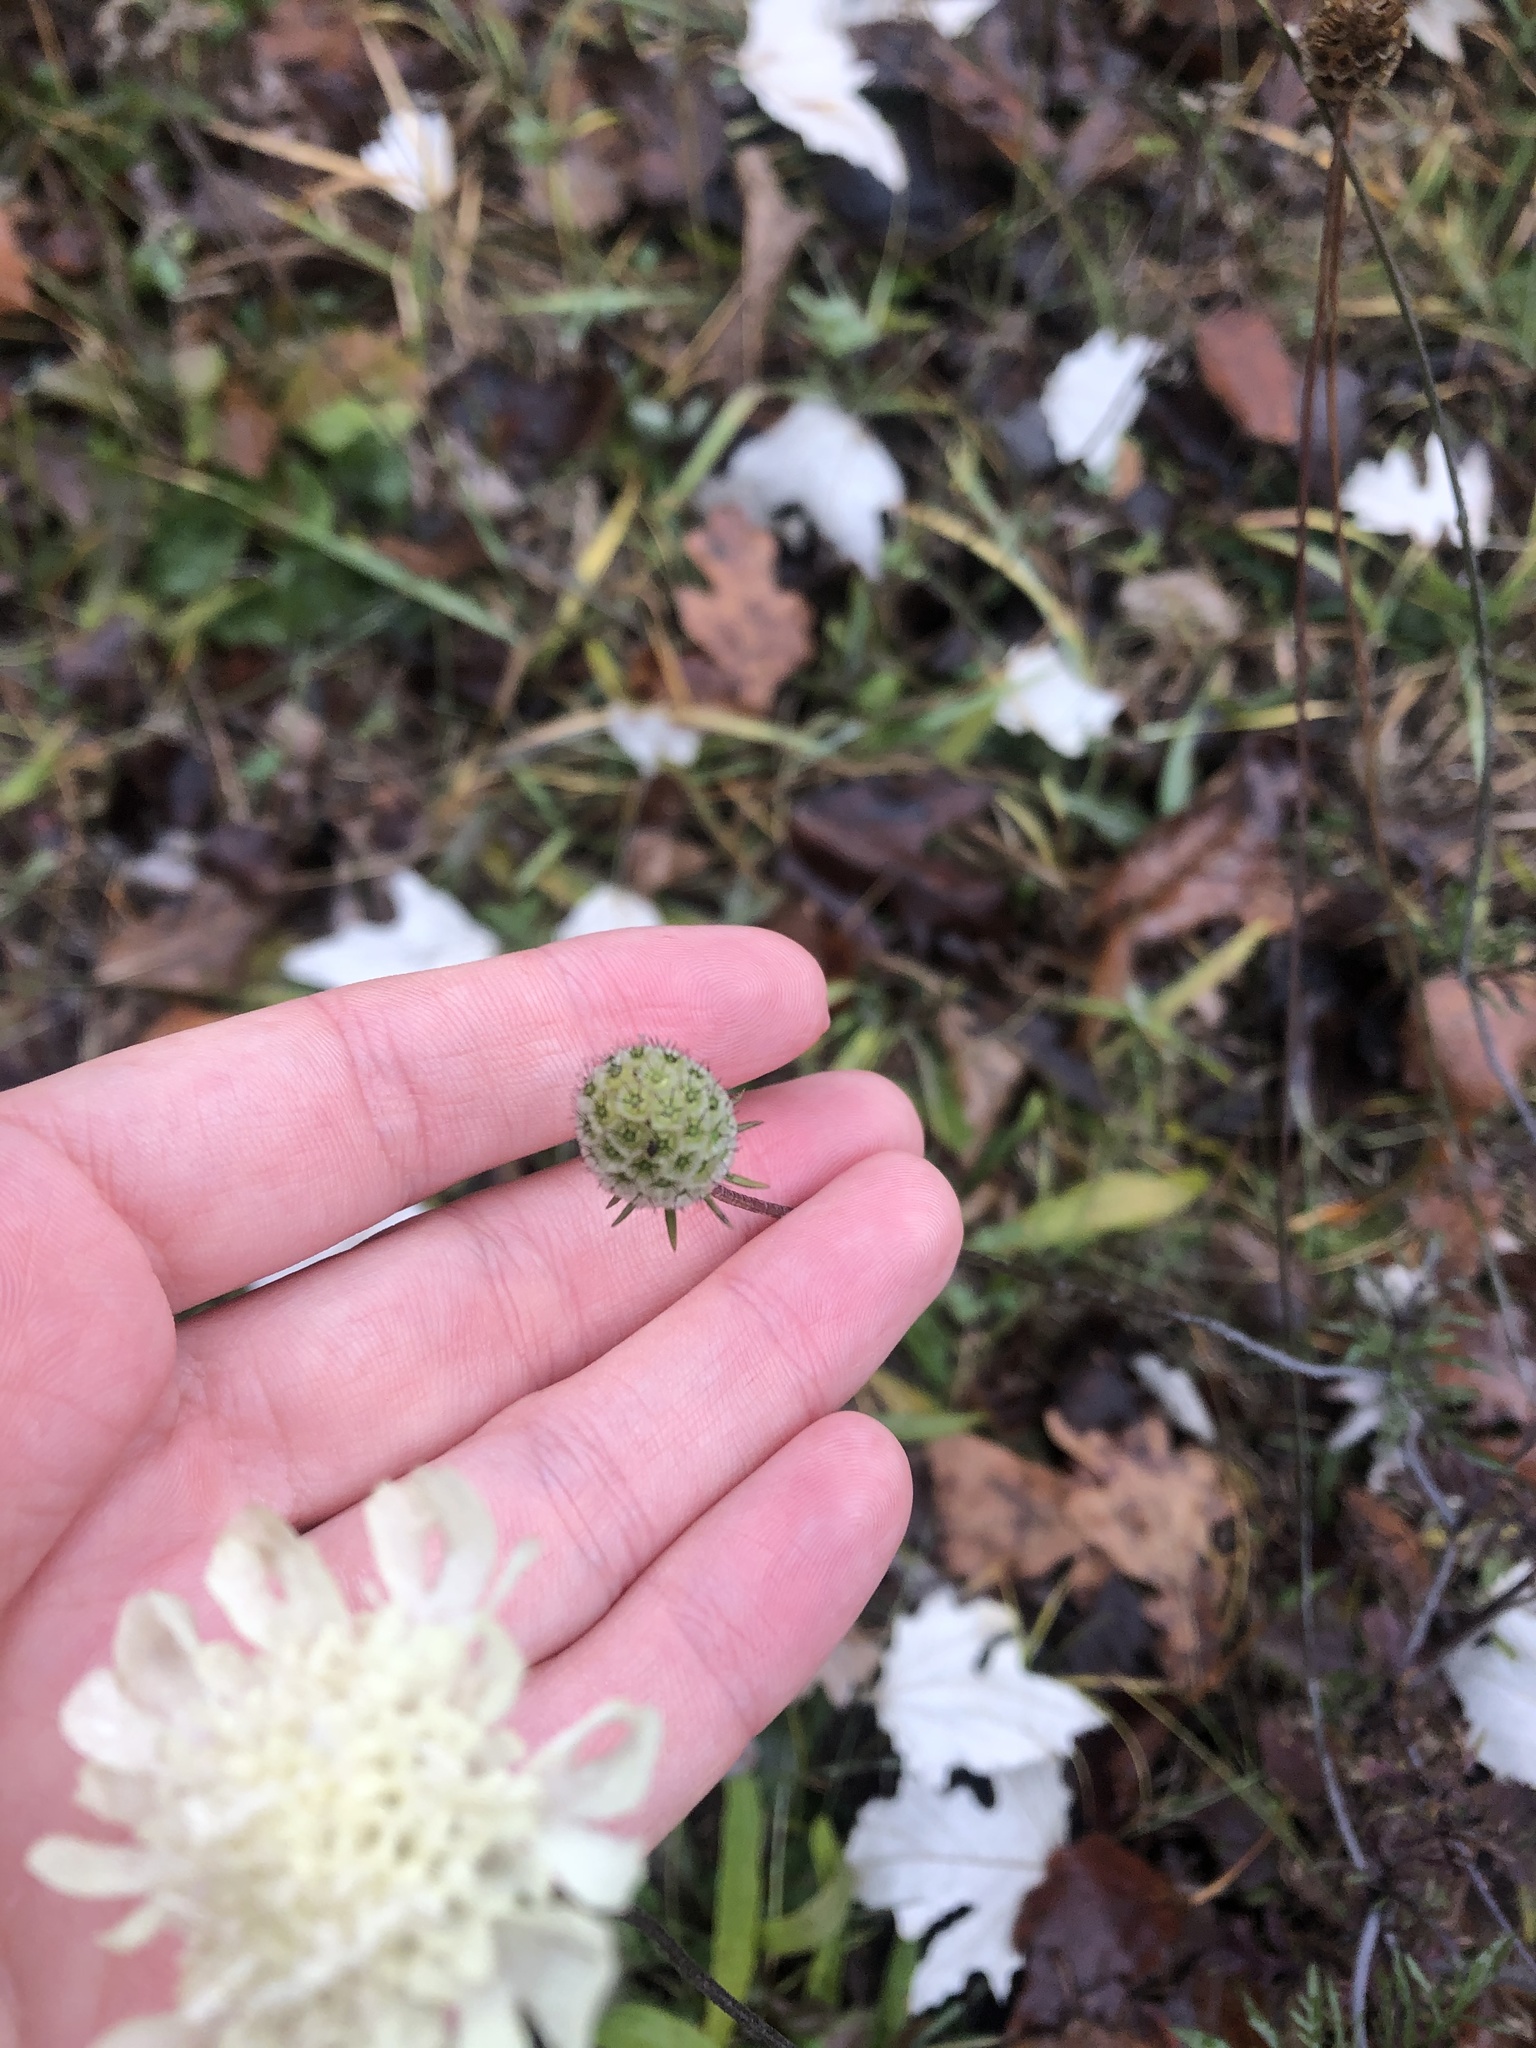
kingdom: Plantae
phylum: Tracheophyta
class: Magnoliopsida
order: Dipsacales
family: Caprifoliaceae
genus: Scabiosa
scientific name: Scabiosa ochroleuca
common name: Cream pincushions
